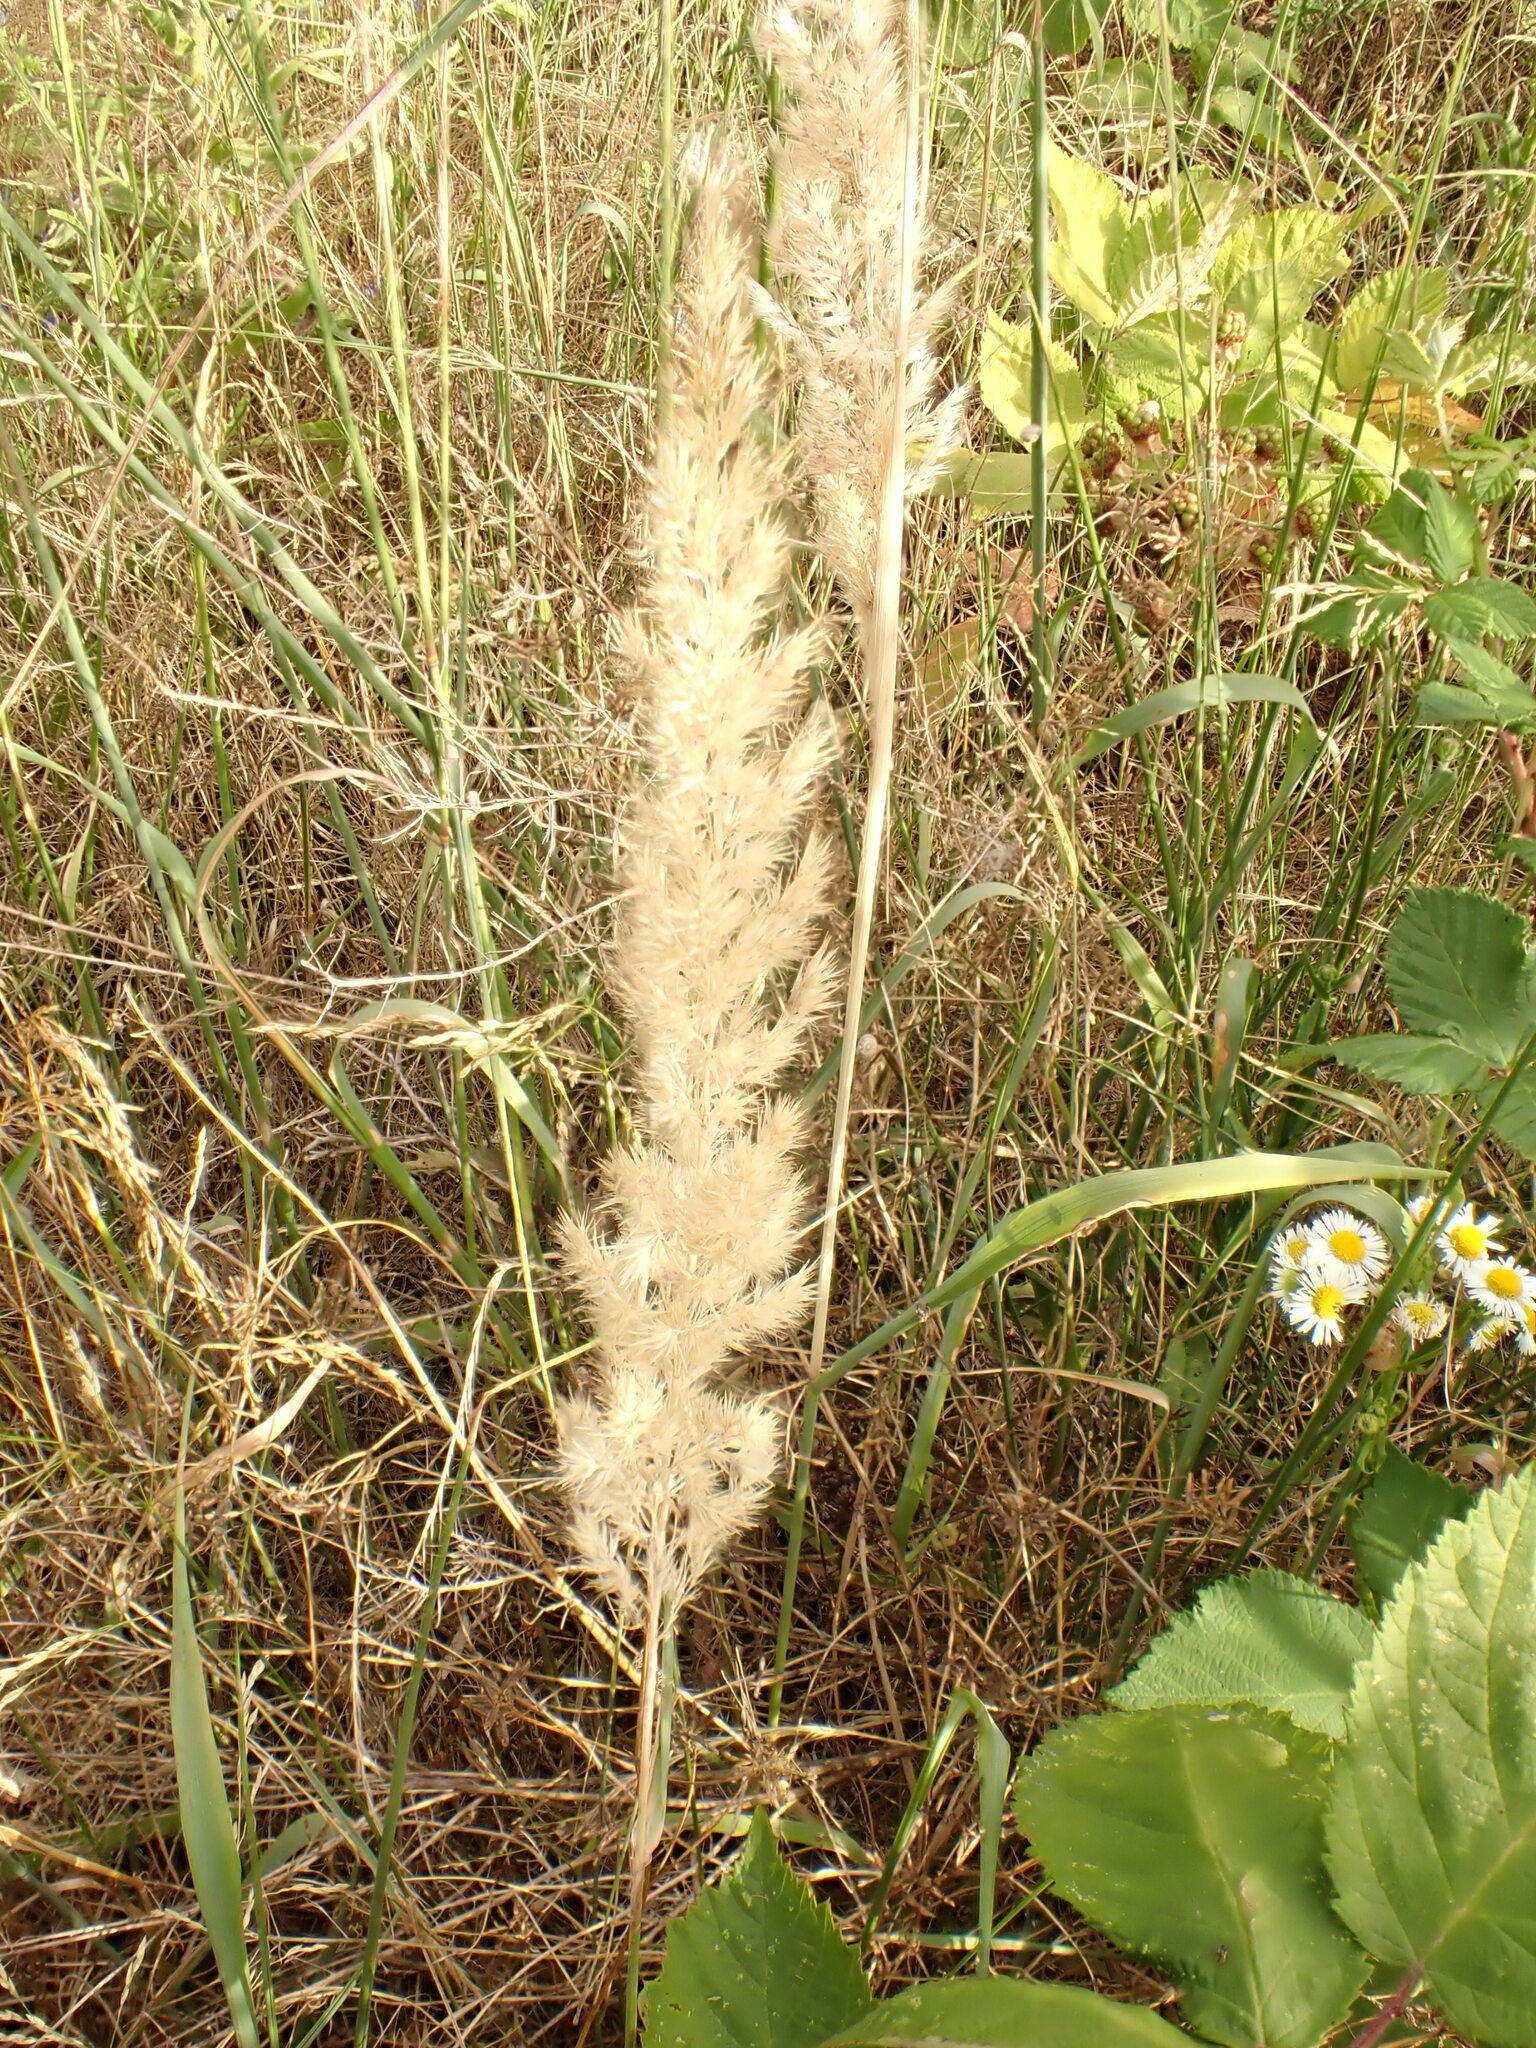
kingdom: Plantae
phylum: Tracheophyta
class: Liliopsida
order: Poales
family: Poaceae
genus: Calamagrostis
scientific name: Calamagrostis epigejos
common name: Wood small-reed
